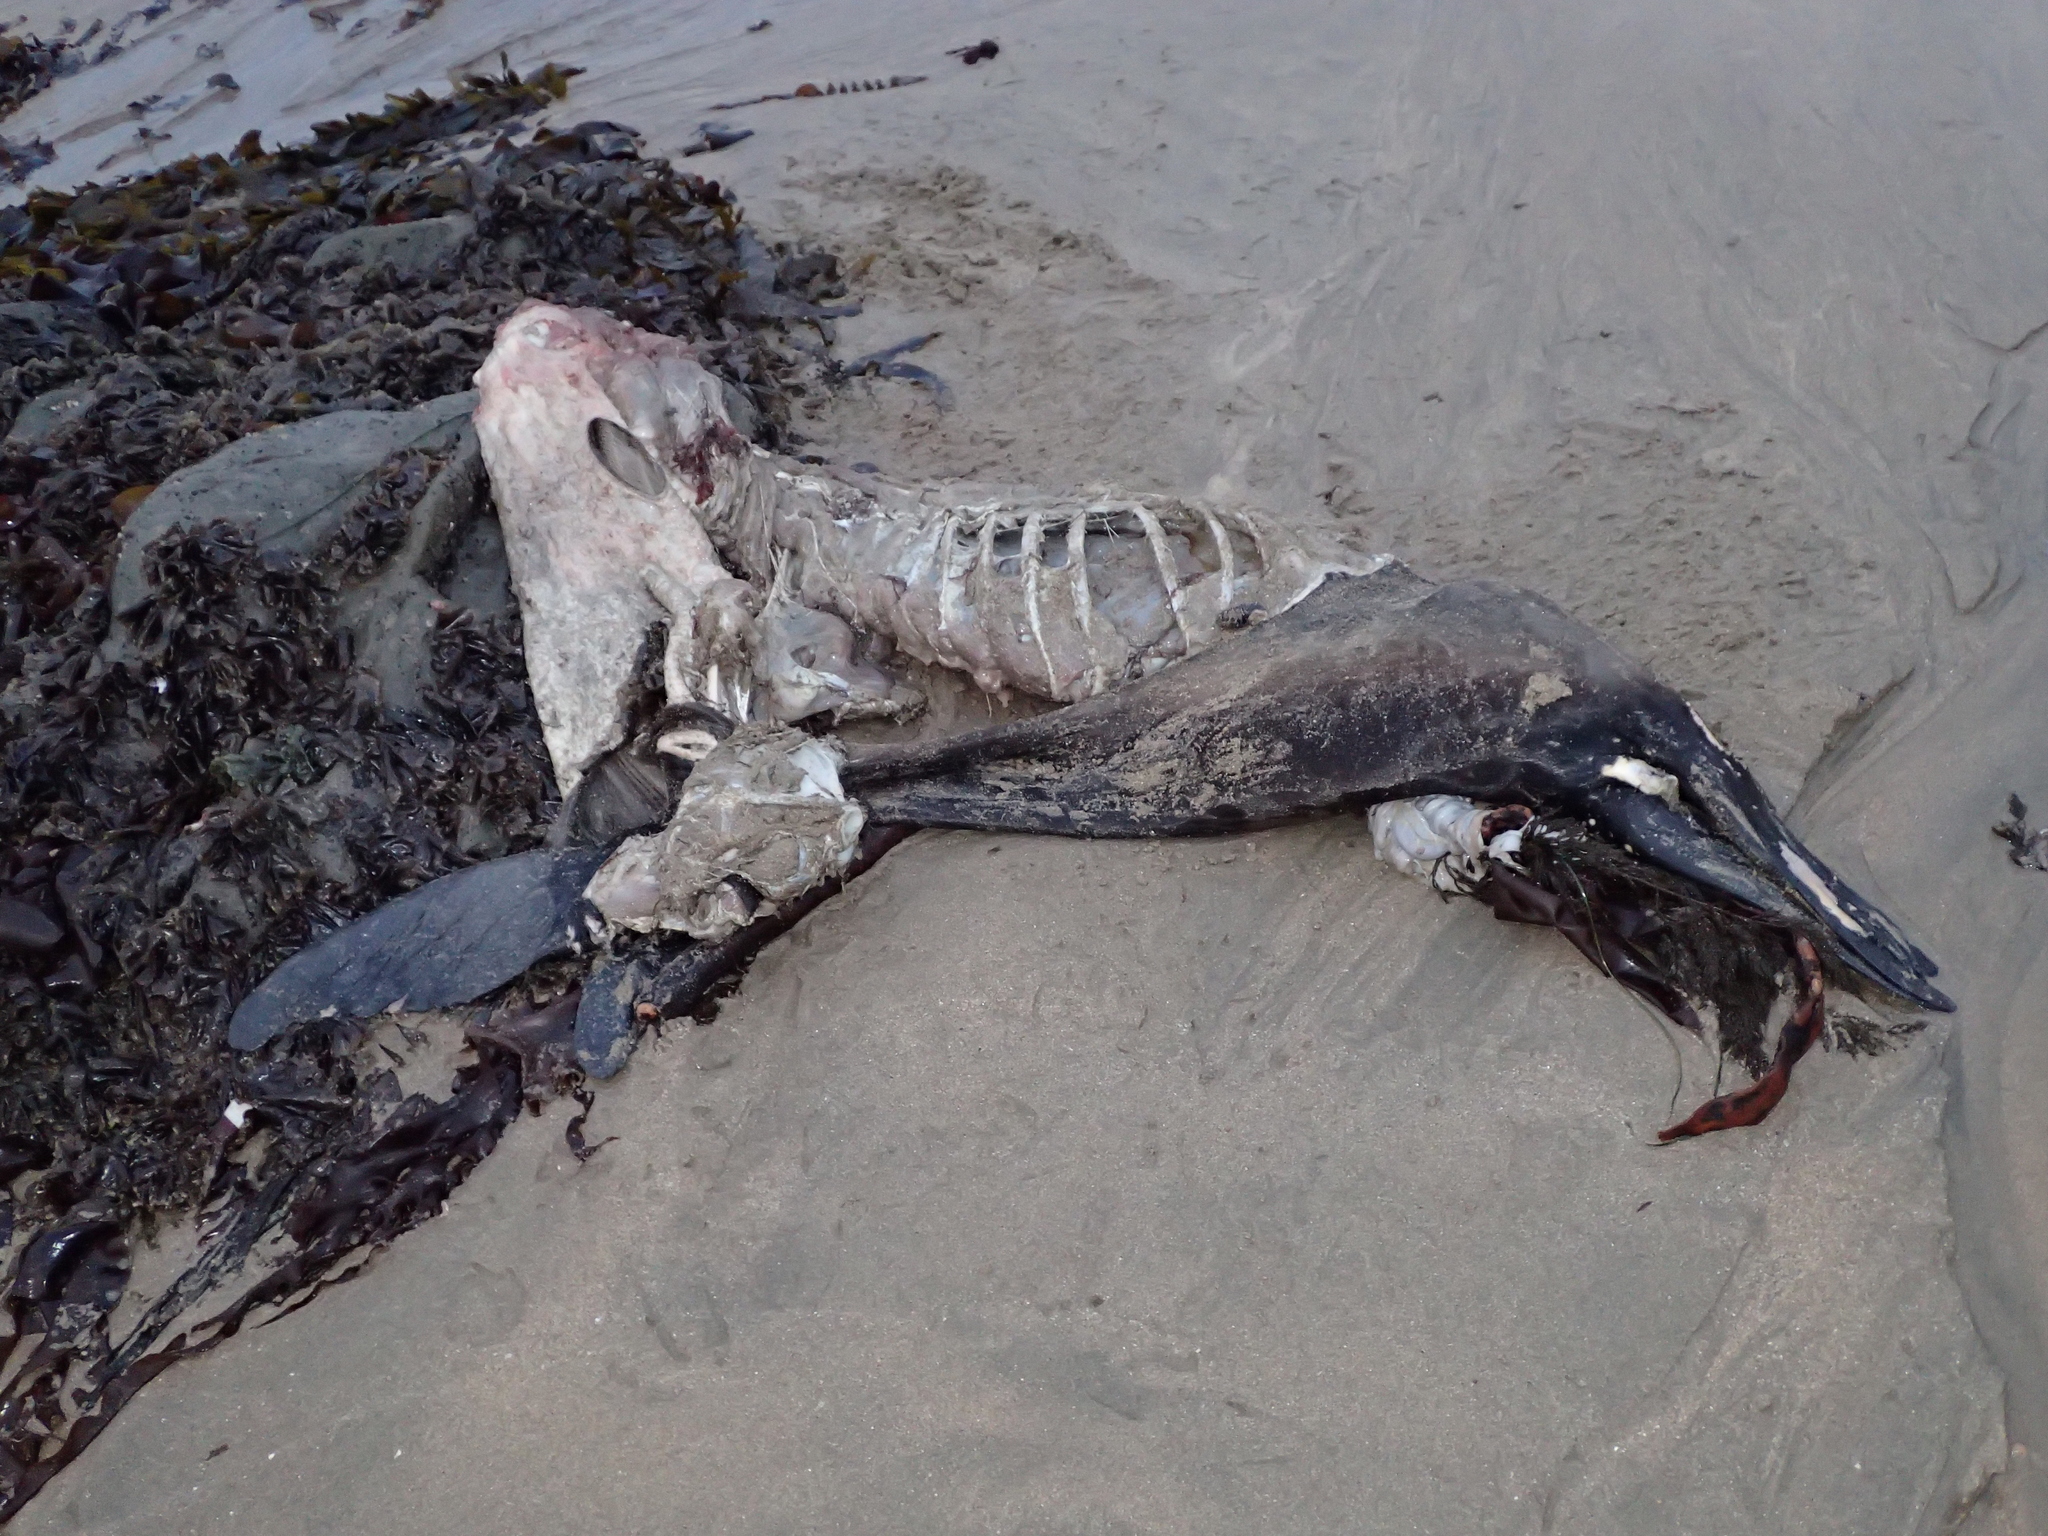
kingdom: Animalia
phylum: Chordata
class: Mammalia
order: Carnivora
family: Otariidae
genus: Zalophus
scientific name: Zalophus californianus
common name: California sea lion
